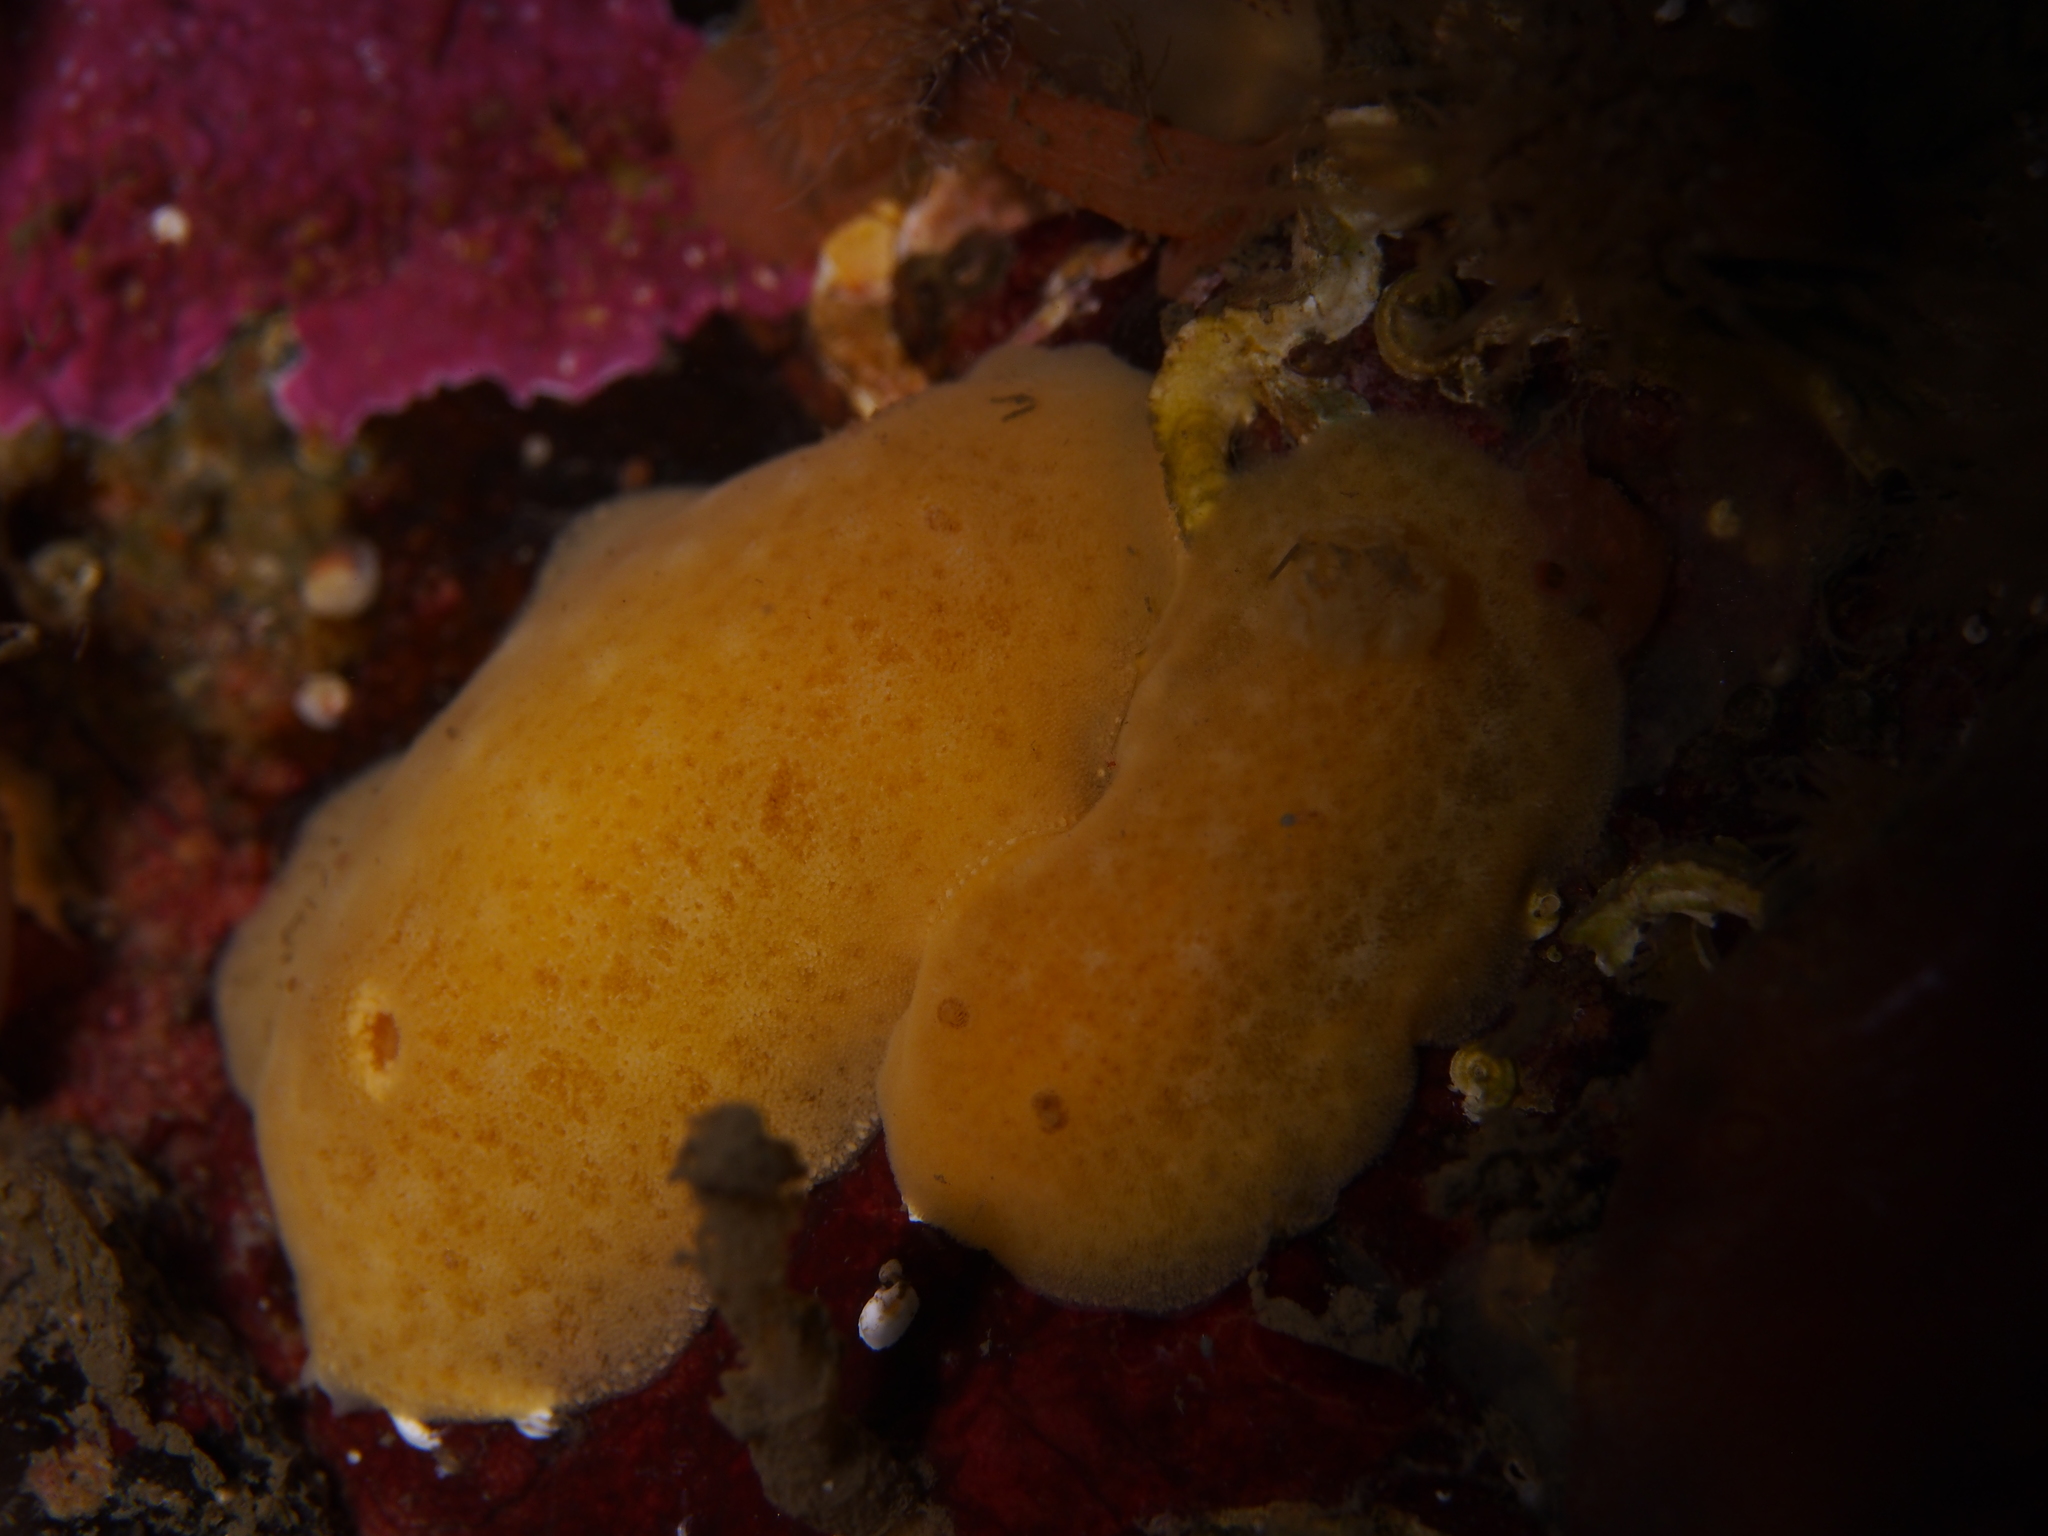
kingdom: Animalia
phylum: Mollusca
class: Gastropoda
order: Nudibranchia
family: Discodorididae
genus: Jorunna
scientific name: Jorunna tomentosa
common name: Grey sea slug
